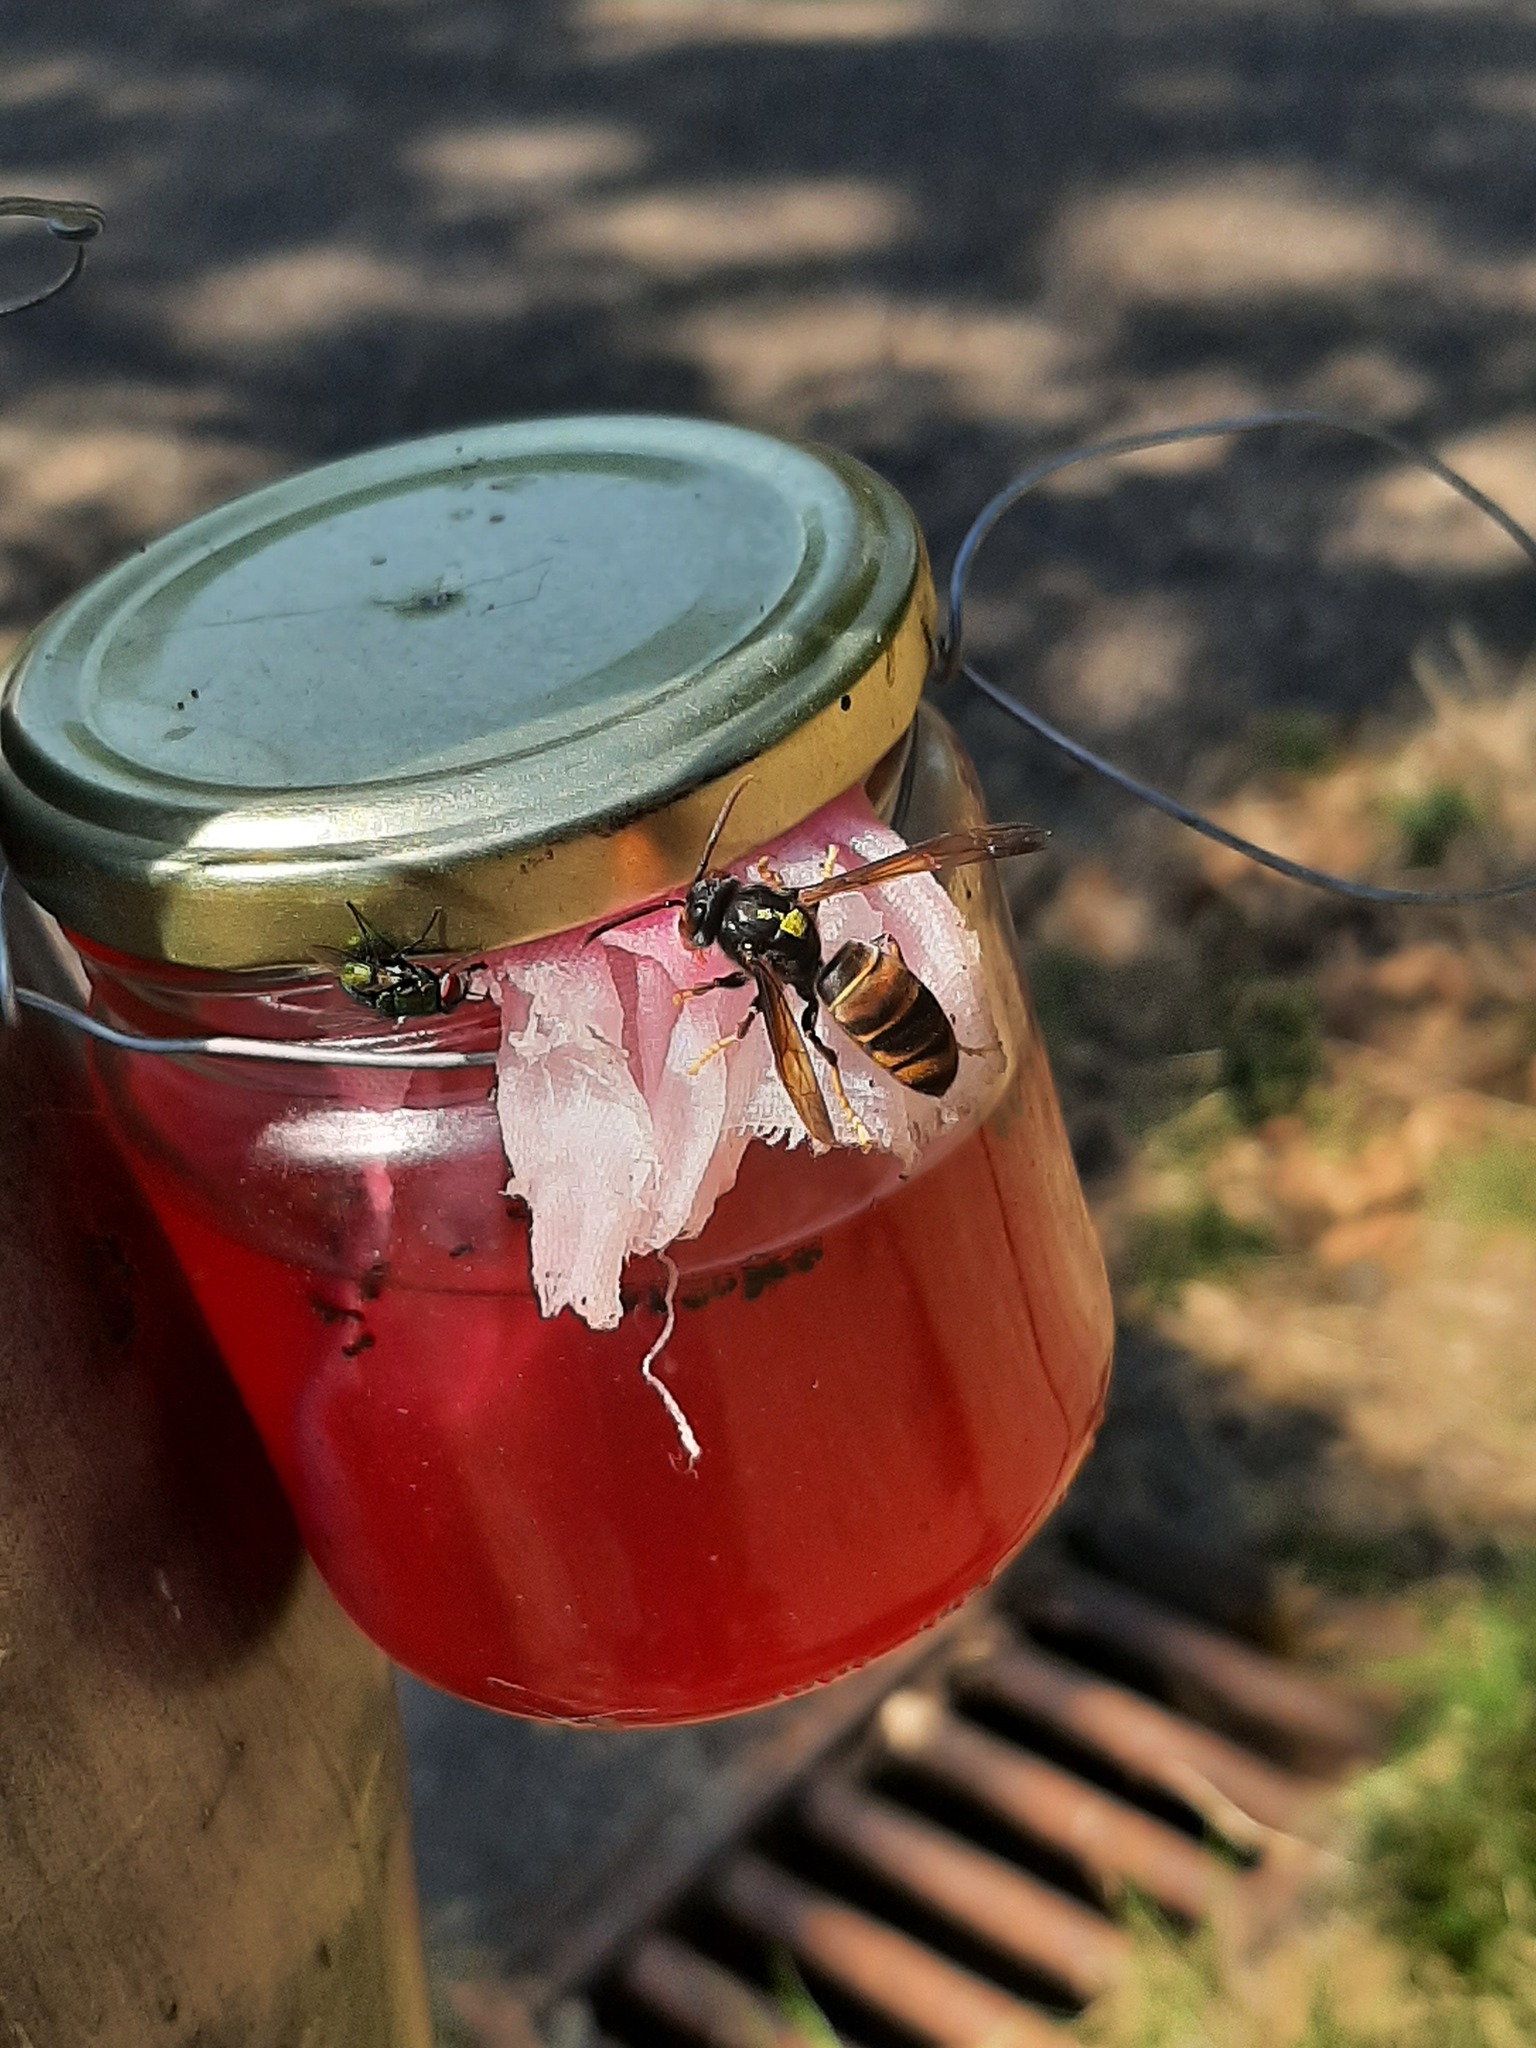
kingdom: Animalia
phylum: Arthropoda
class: Insecta
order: Hymenoptera
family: Vespidae
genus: Vespa
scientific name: Vespa velutina
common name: Asian hornet
